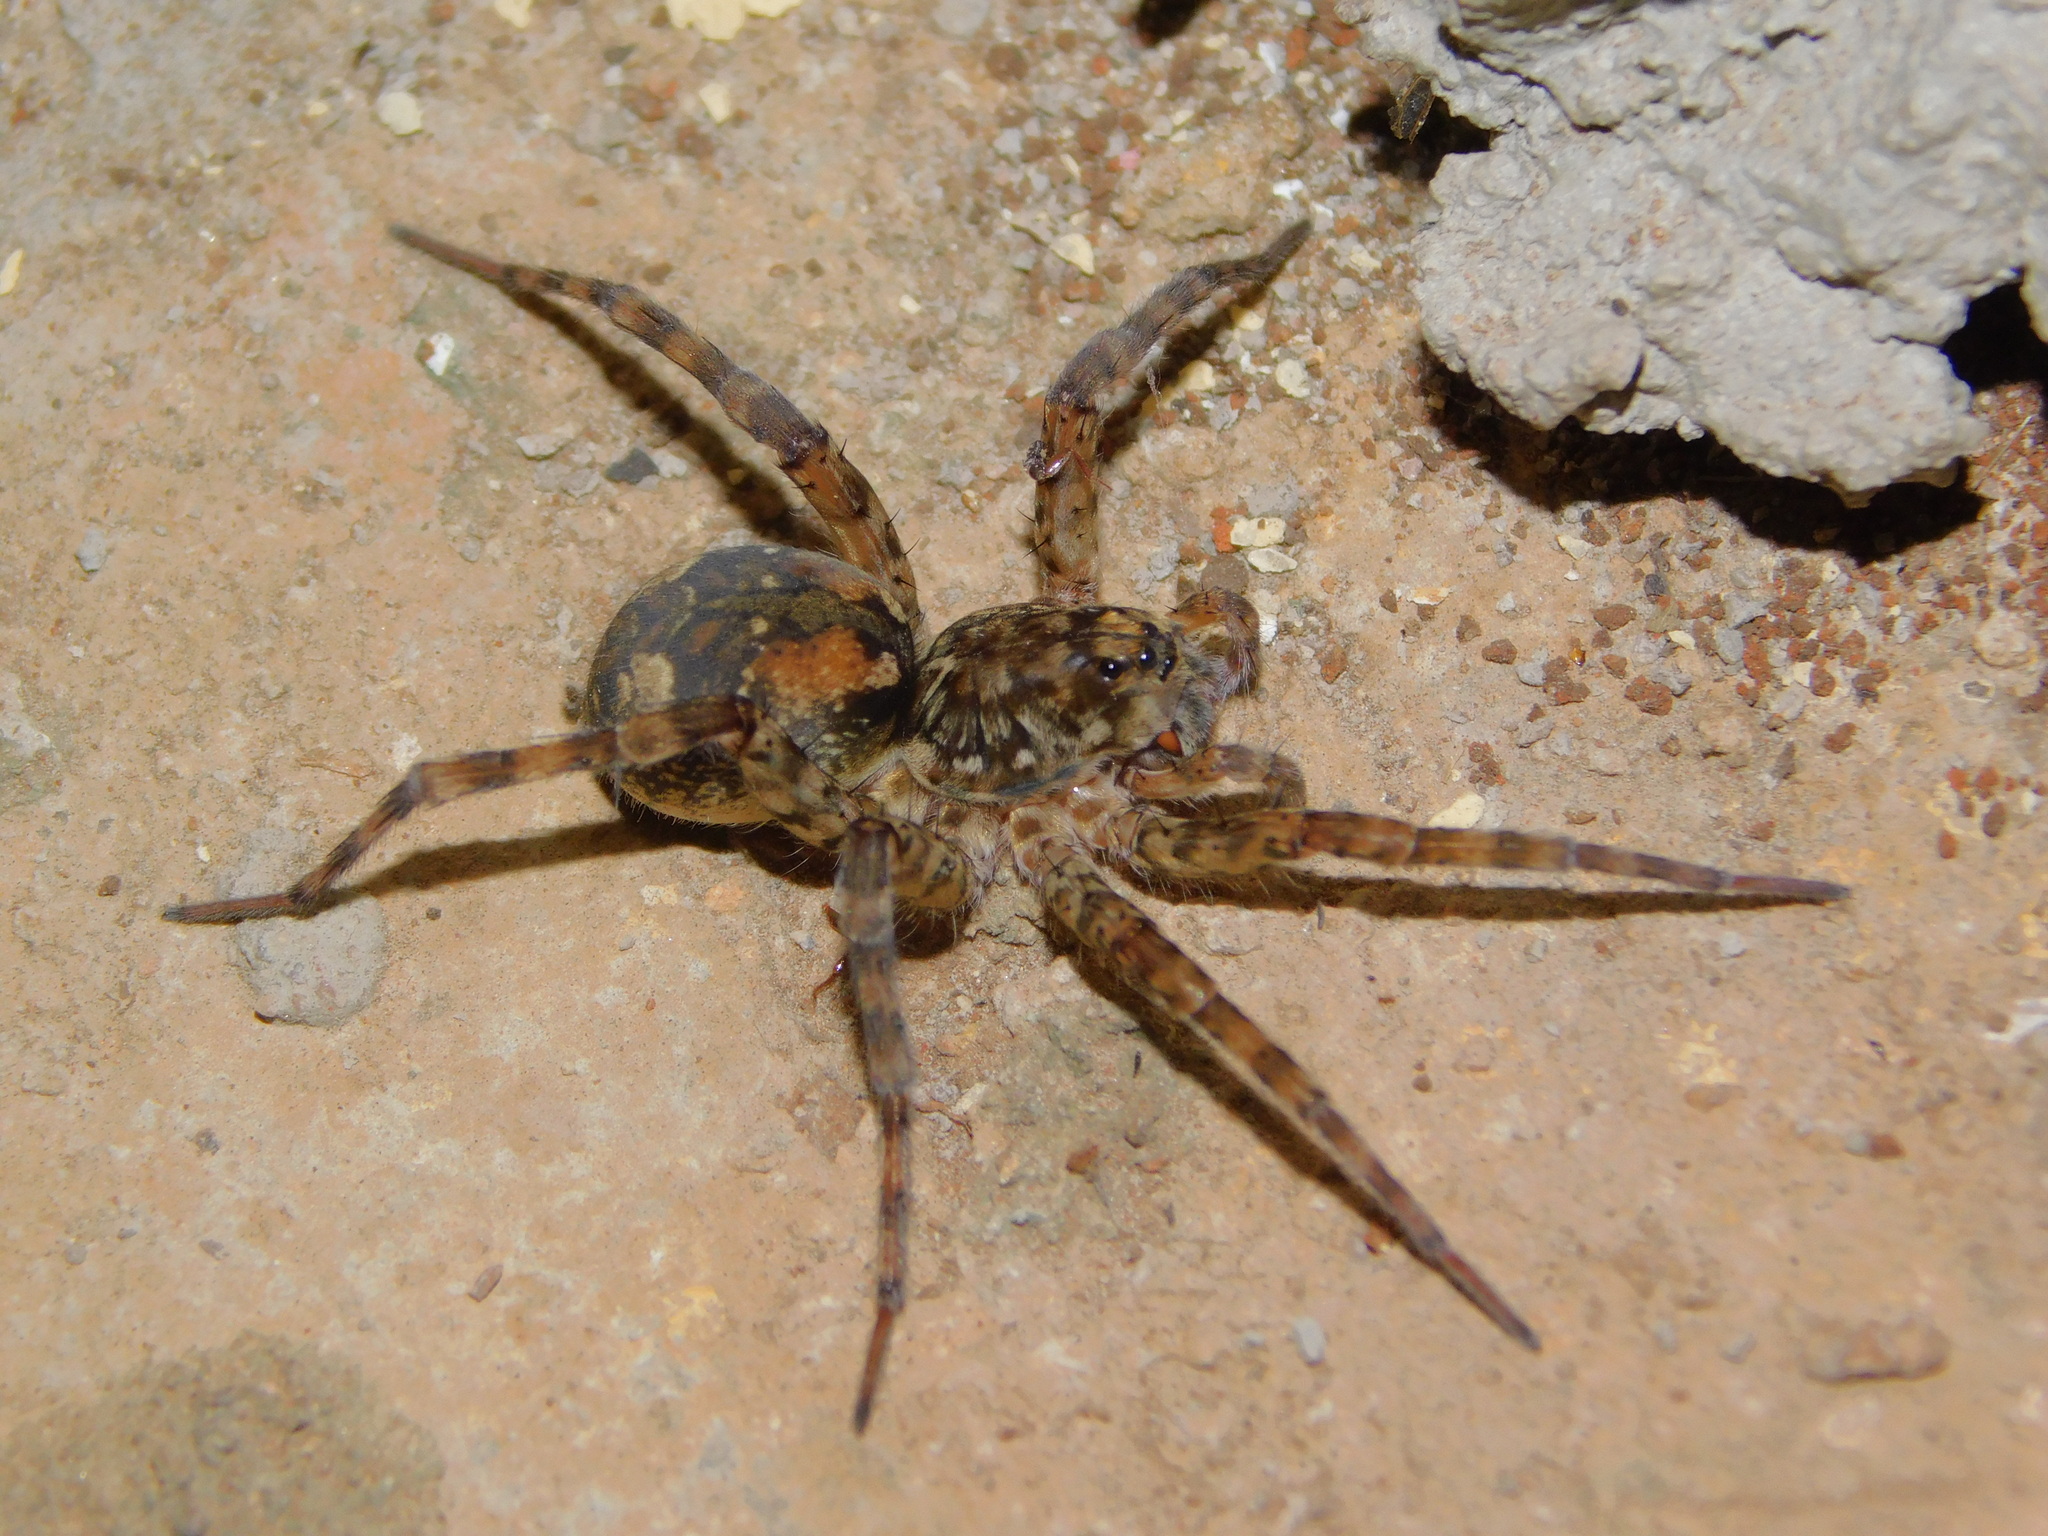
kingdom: Animalia
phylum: Arthropoda
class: Arachnida
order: Araneae
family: Lycosidae
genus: Ocyale
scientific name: Ocyale guttata
